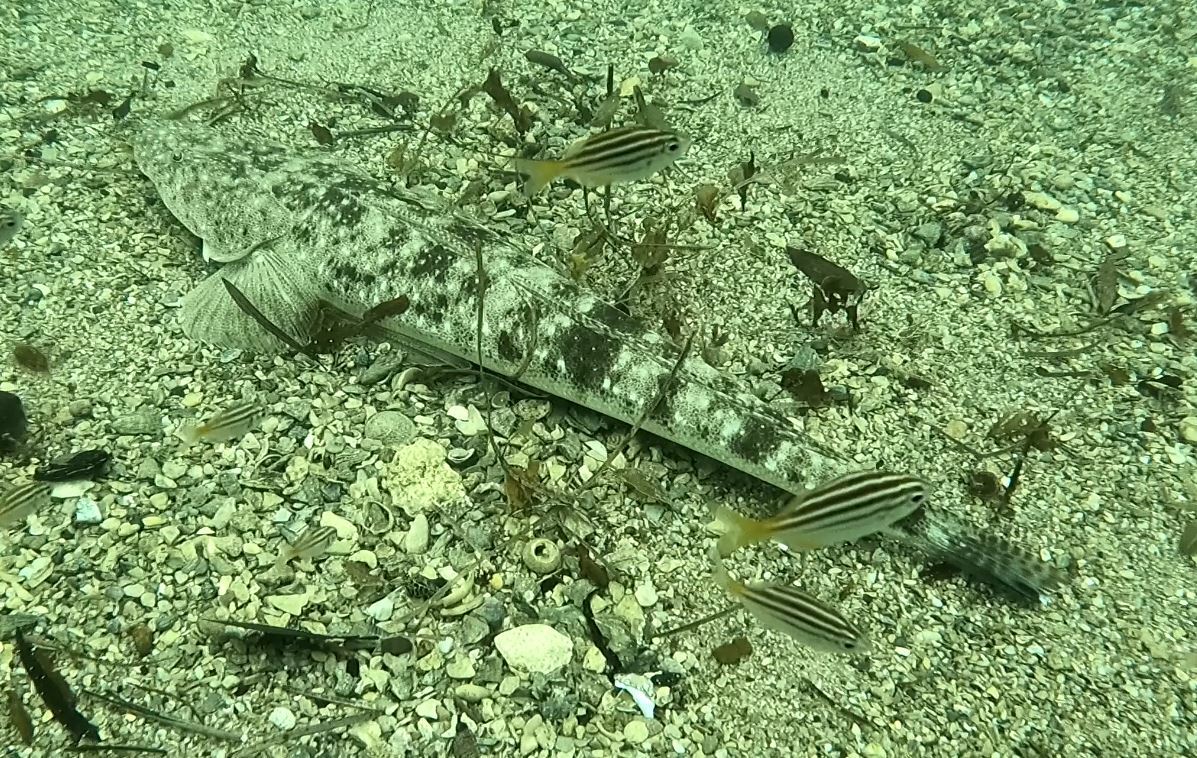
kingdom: Animalia
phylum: Chordata
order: Scorpaeniformes
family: Platycephalidae
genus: Platycephalus
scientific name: Platycephalus fuscus
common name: Dusky flathead
